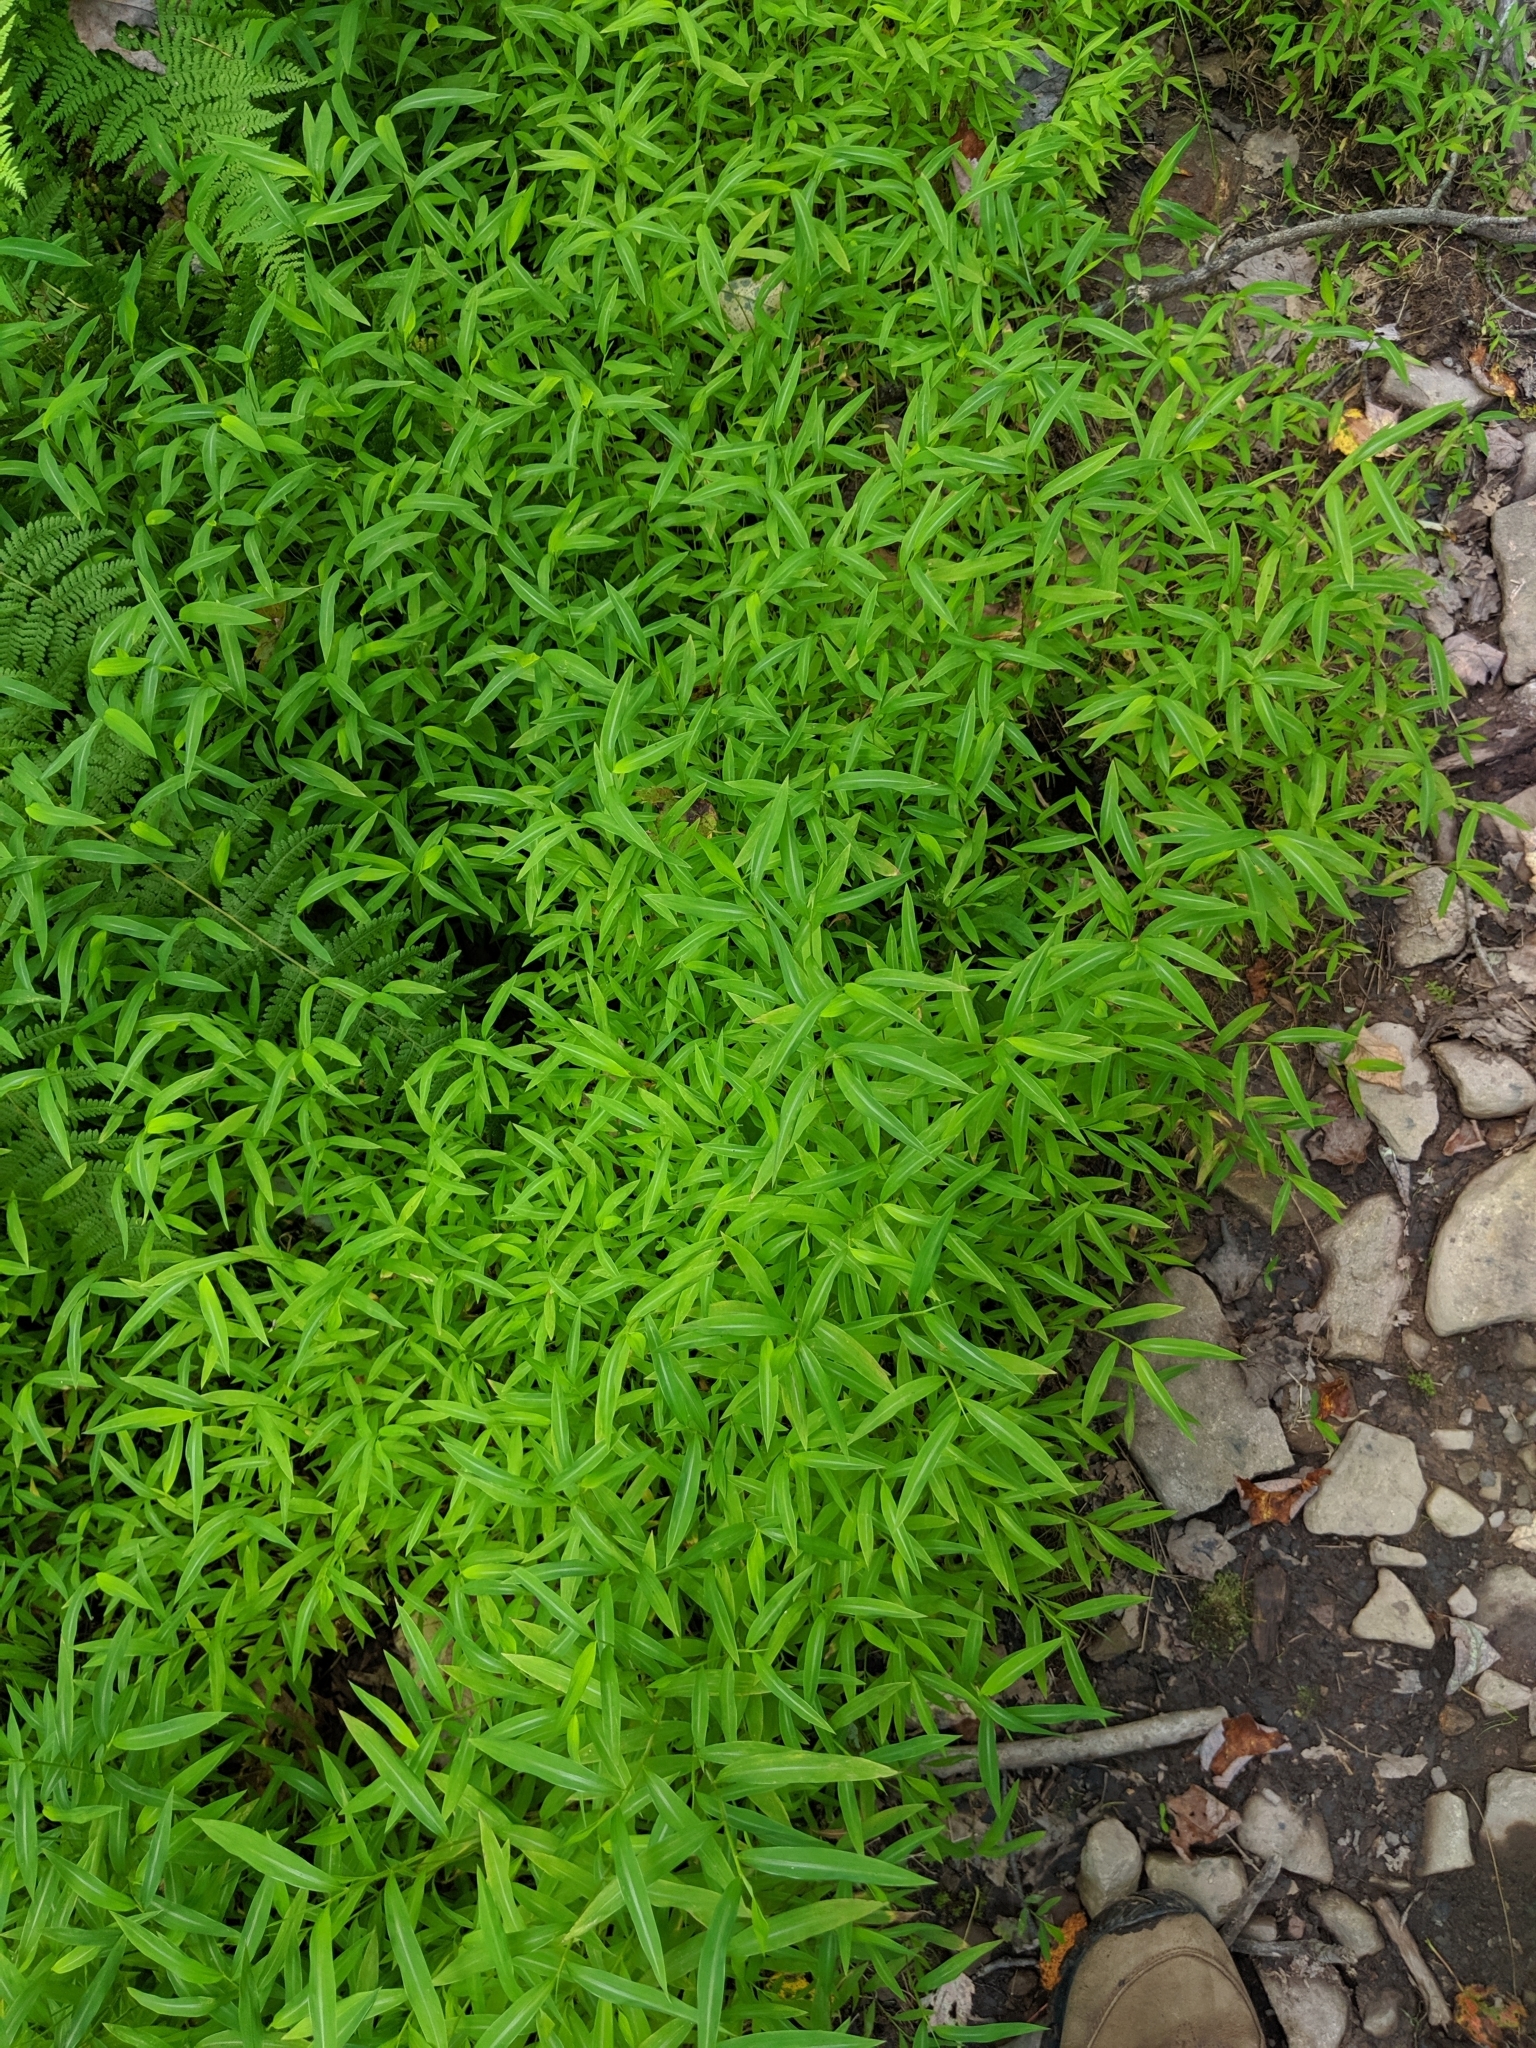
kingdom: Plantae
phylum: Tracheophyta
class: Liliopsida
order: Poales
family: Poaceae
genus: Microstegium
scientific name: Microstegium vimineum
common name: Japanese stiltgrass
